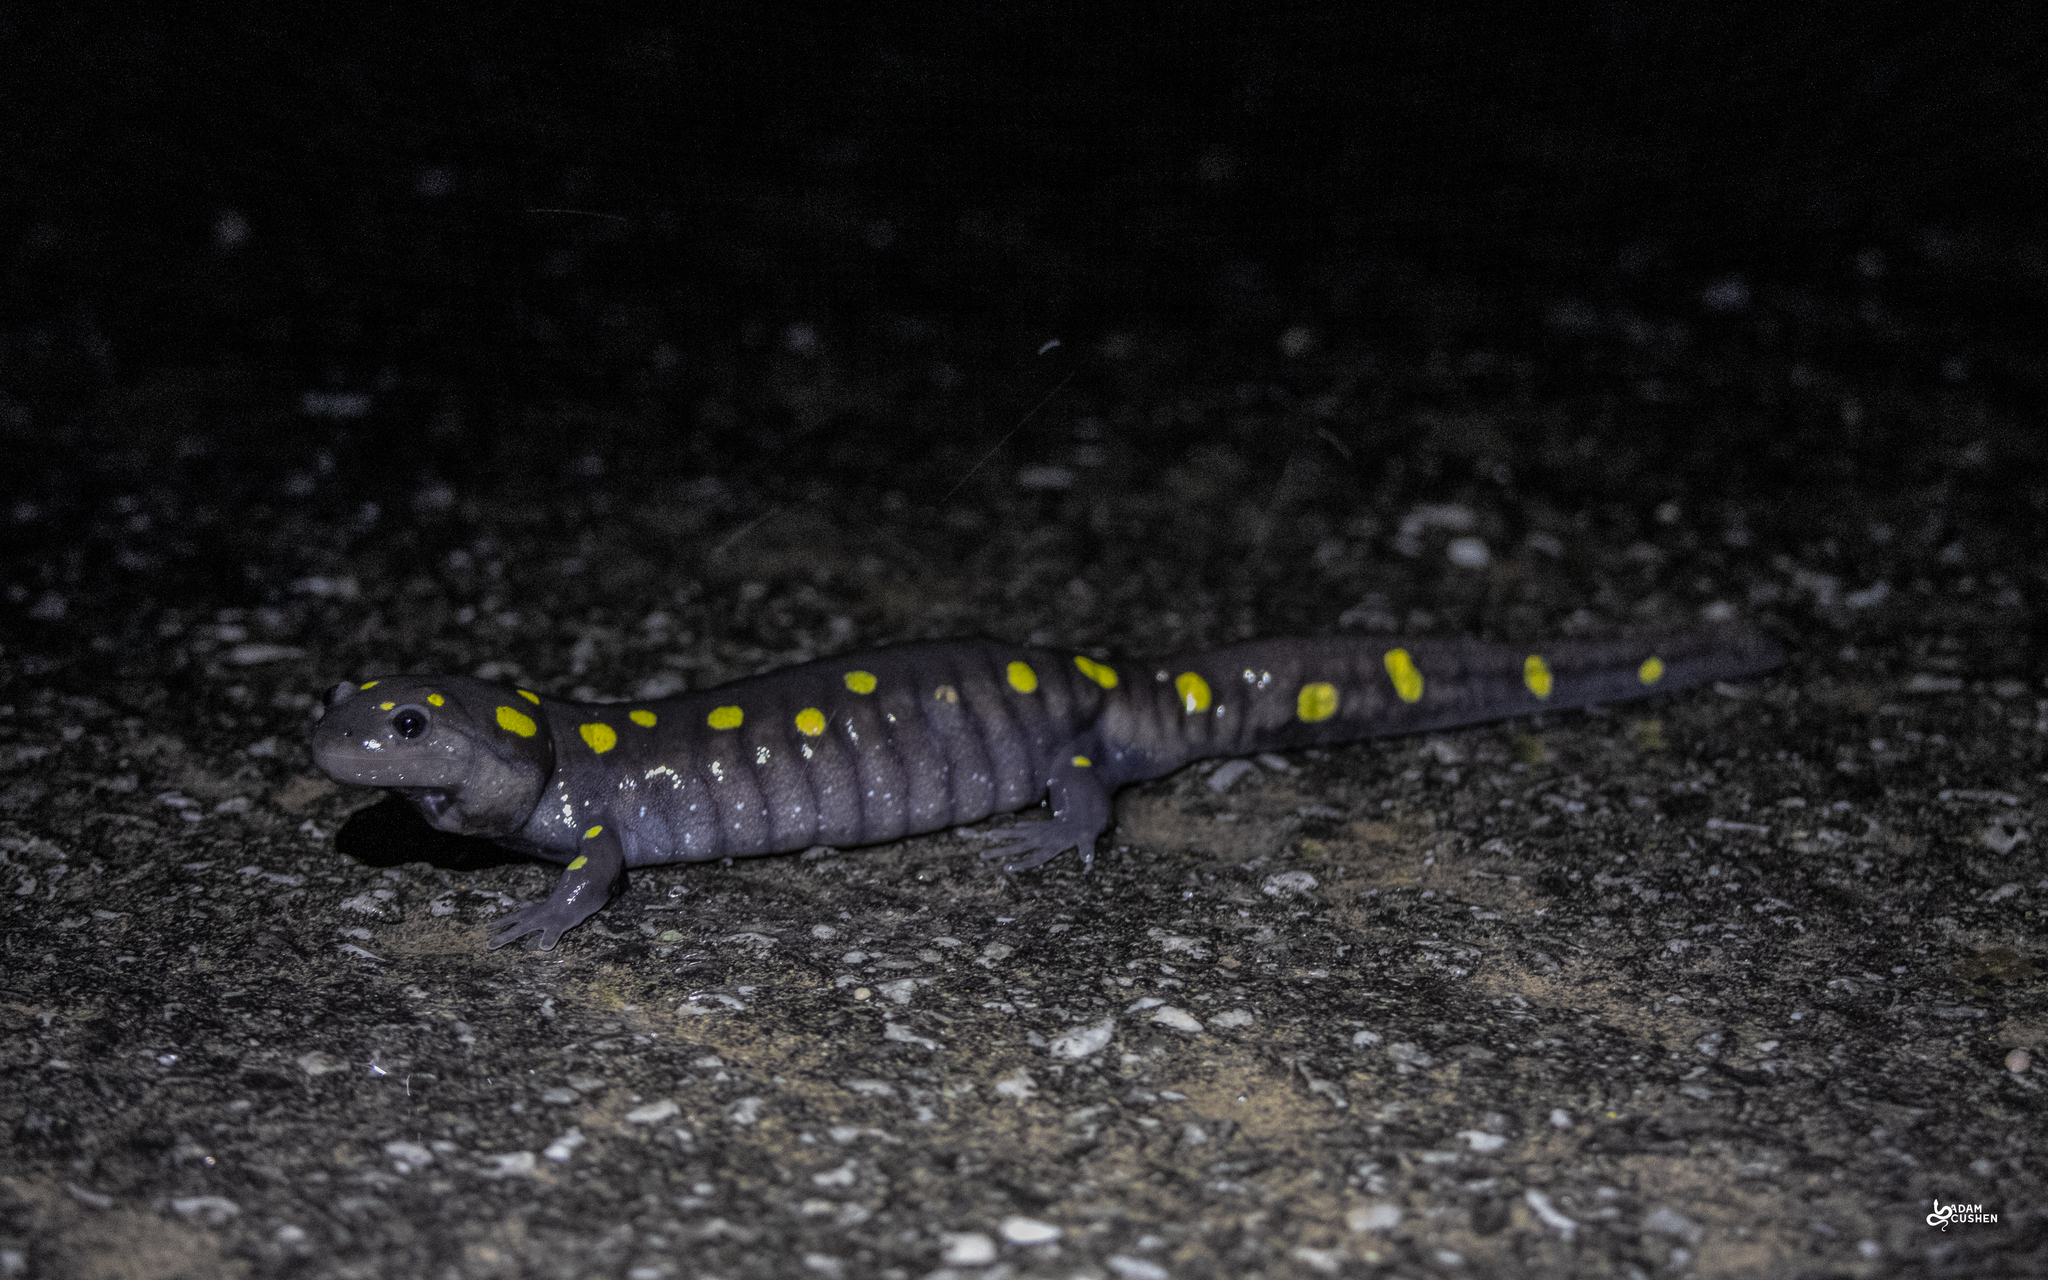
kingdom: Animalia
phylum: Chordata
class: Amphibia
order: Caudata
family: Ambystomatidae
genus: Ambystoma
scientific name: Ambystoma maculatum
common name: Spotted salamander
